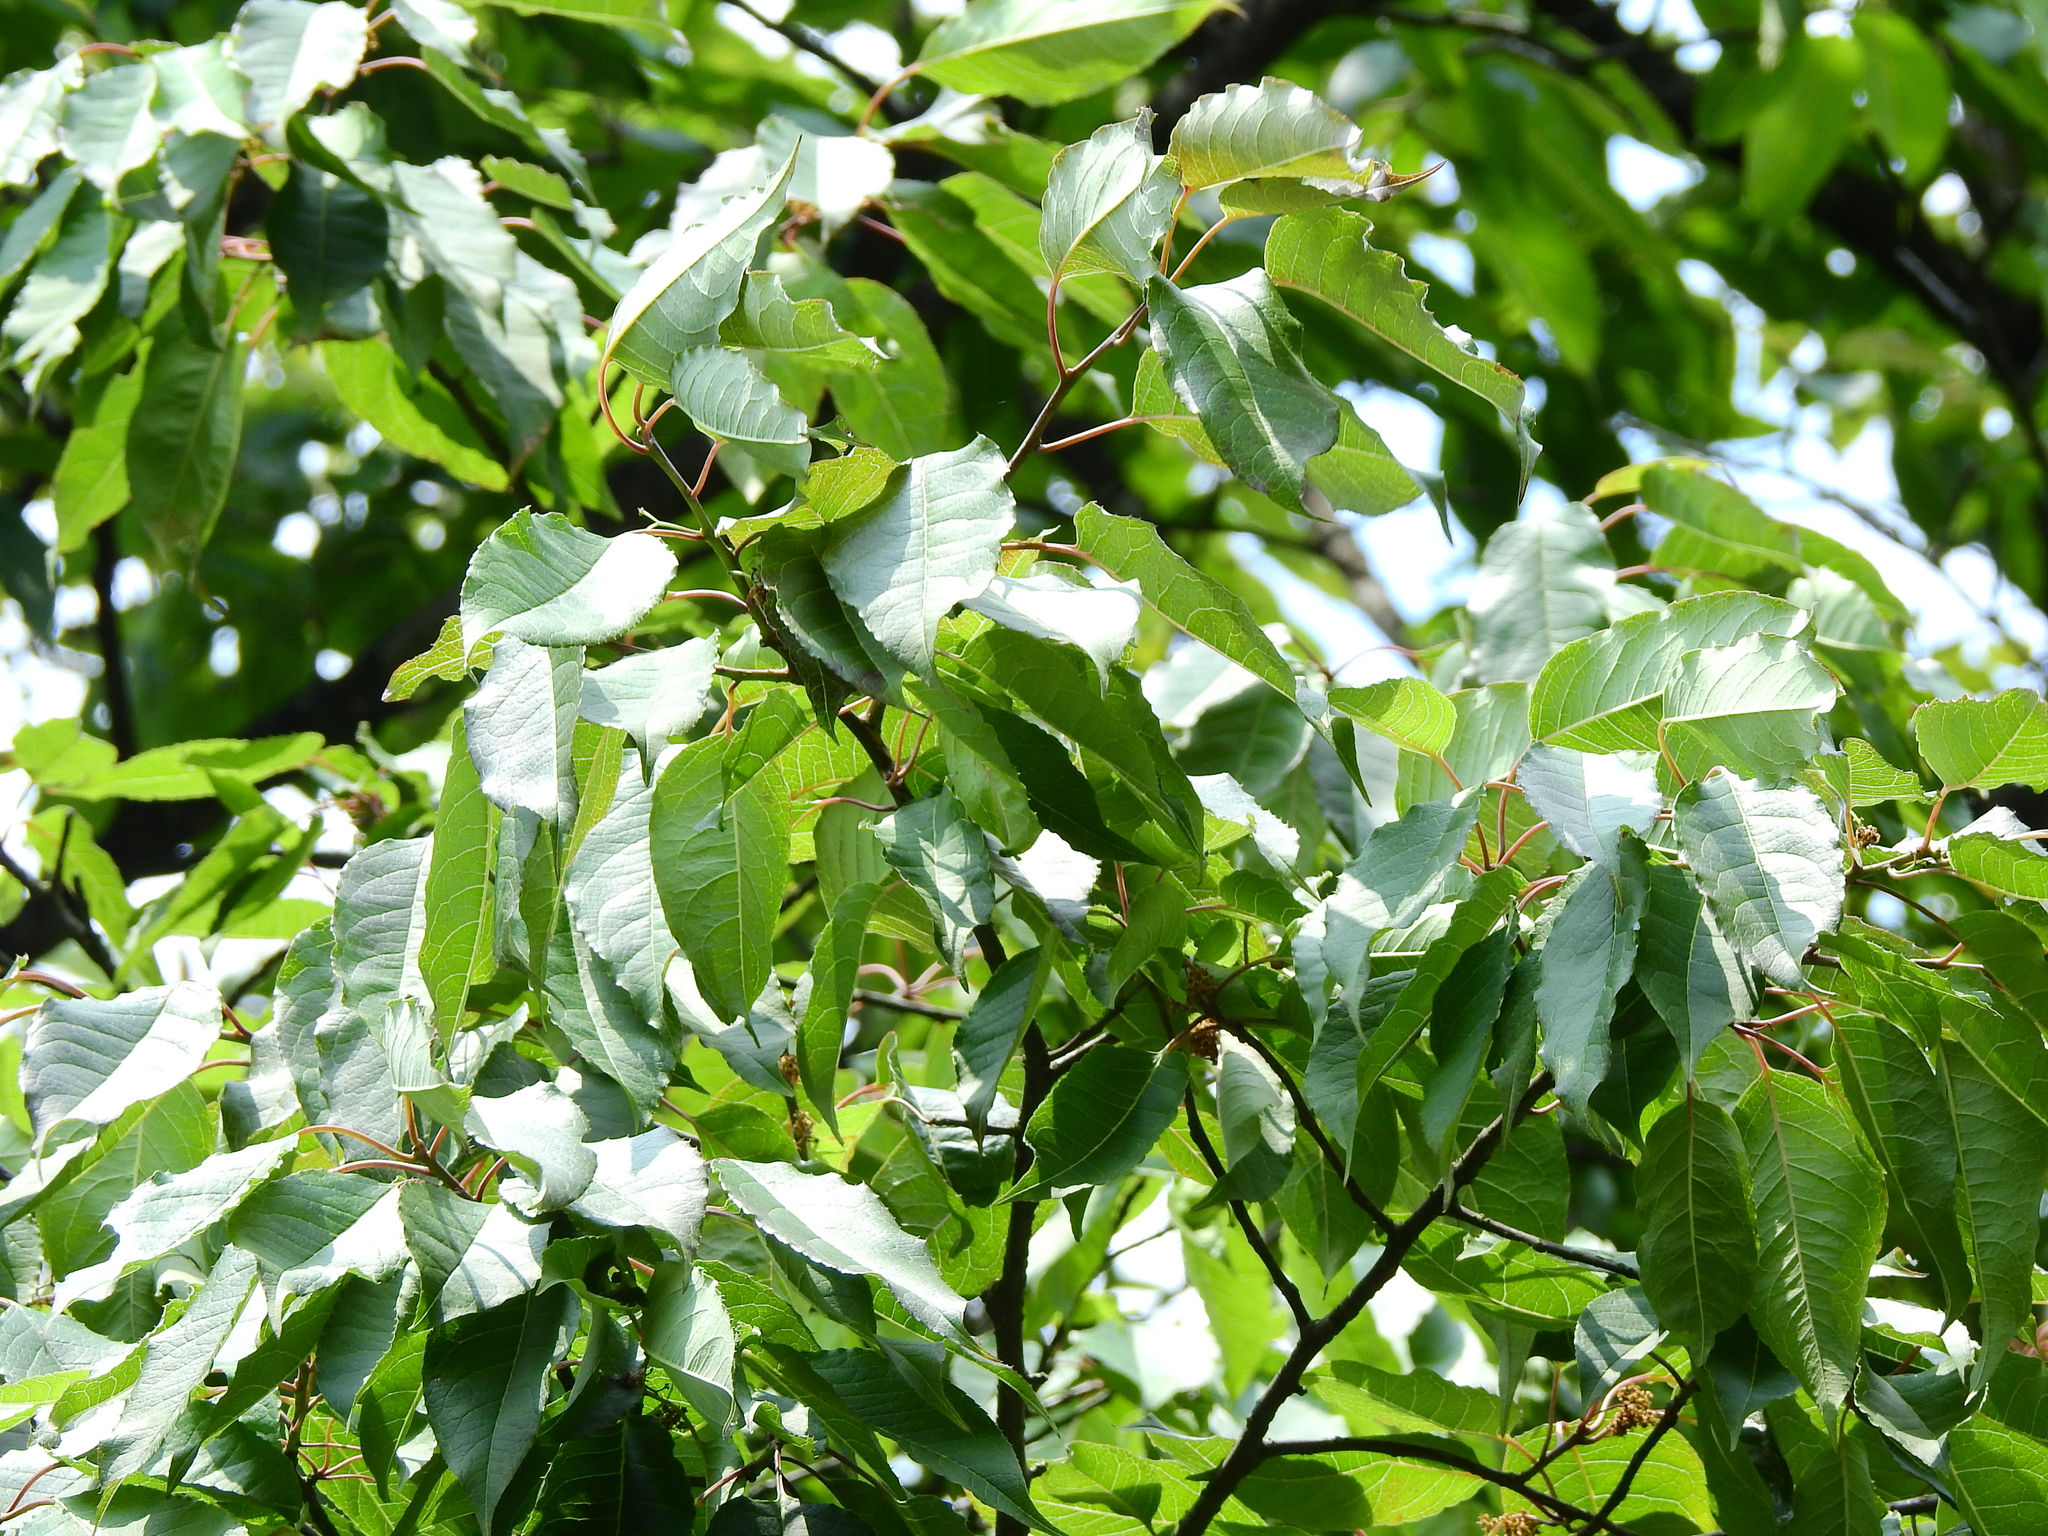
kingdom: Plantae
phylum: Tracheophyta
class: Magnoliopsida
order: Aquifoliales
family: Aquifoliaceae
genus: Ilex
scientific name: Ilex micrococca
